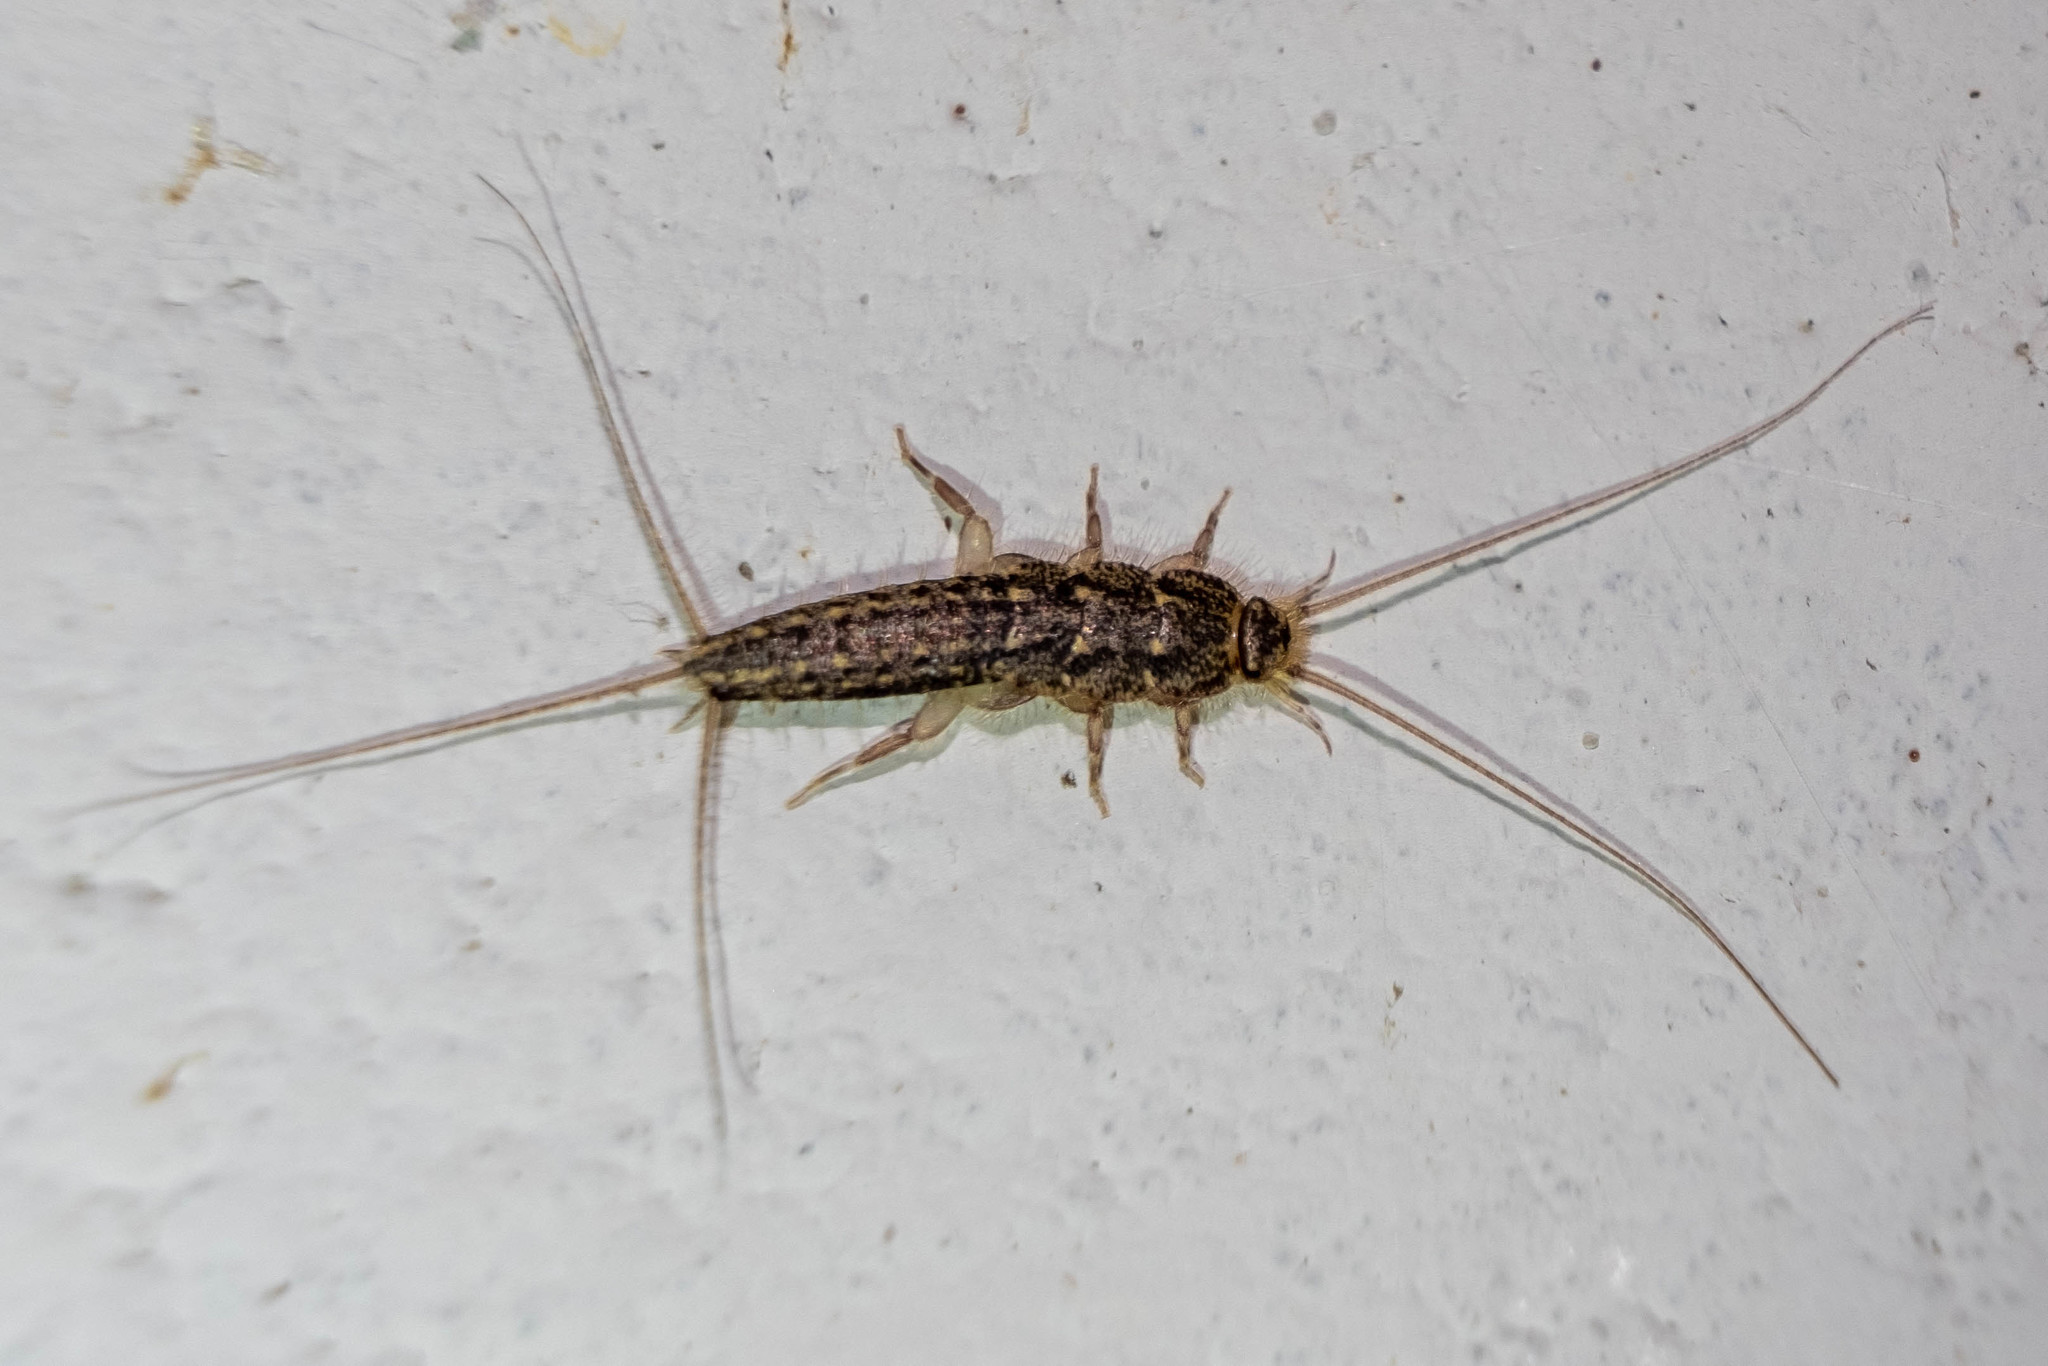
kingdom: Animalia
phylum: Arthropoda
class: Insecta
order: Zygentoma
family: Lepismatidae
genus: Ctenolepisma
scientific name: Ctenolepisma lineata
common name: Four-lined silverfish
